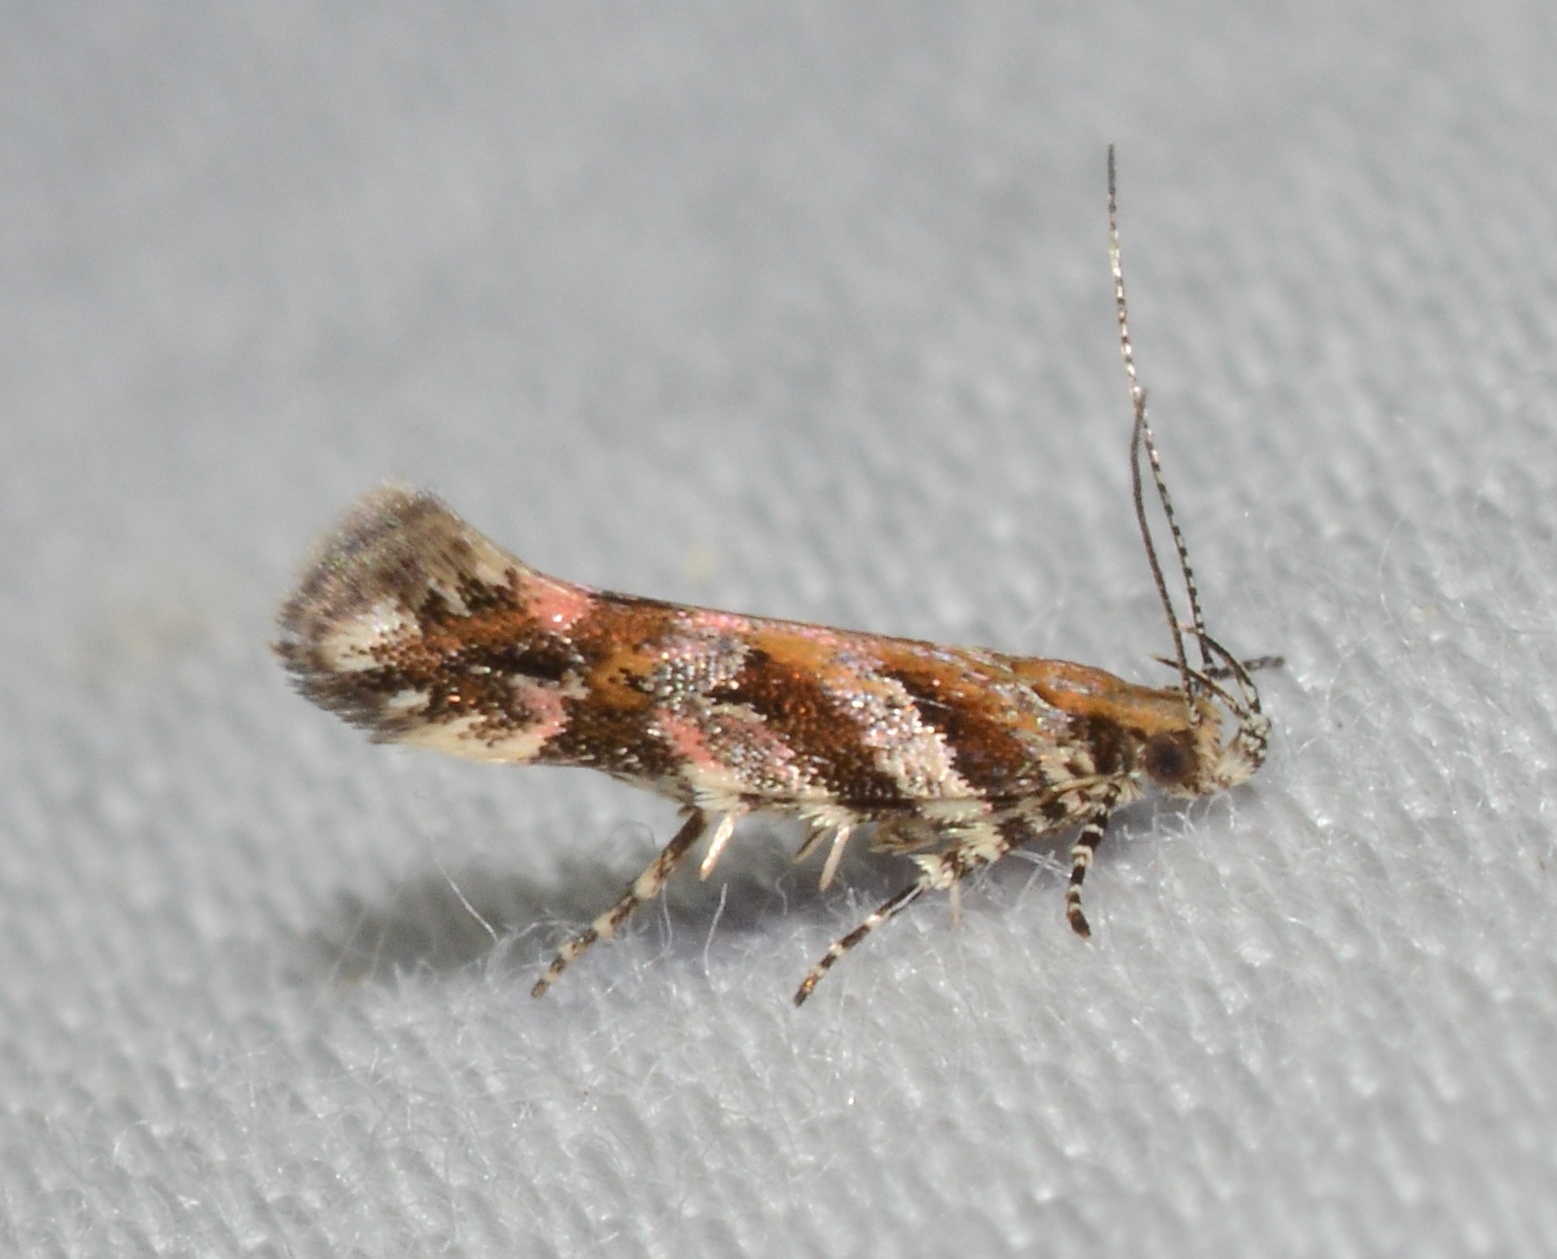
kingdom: Animalia
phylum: Arthropoda
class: Insecta
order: Lepidoptera
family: Gelechiidae
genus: Aristotelia
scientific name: Aristotelia roseosuffusella
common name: Pink-washed aristotelia moth
